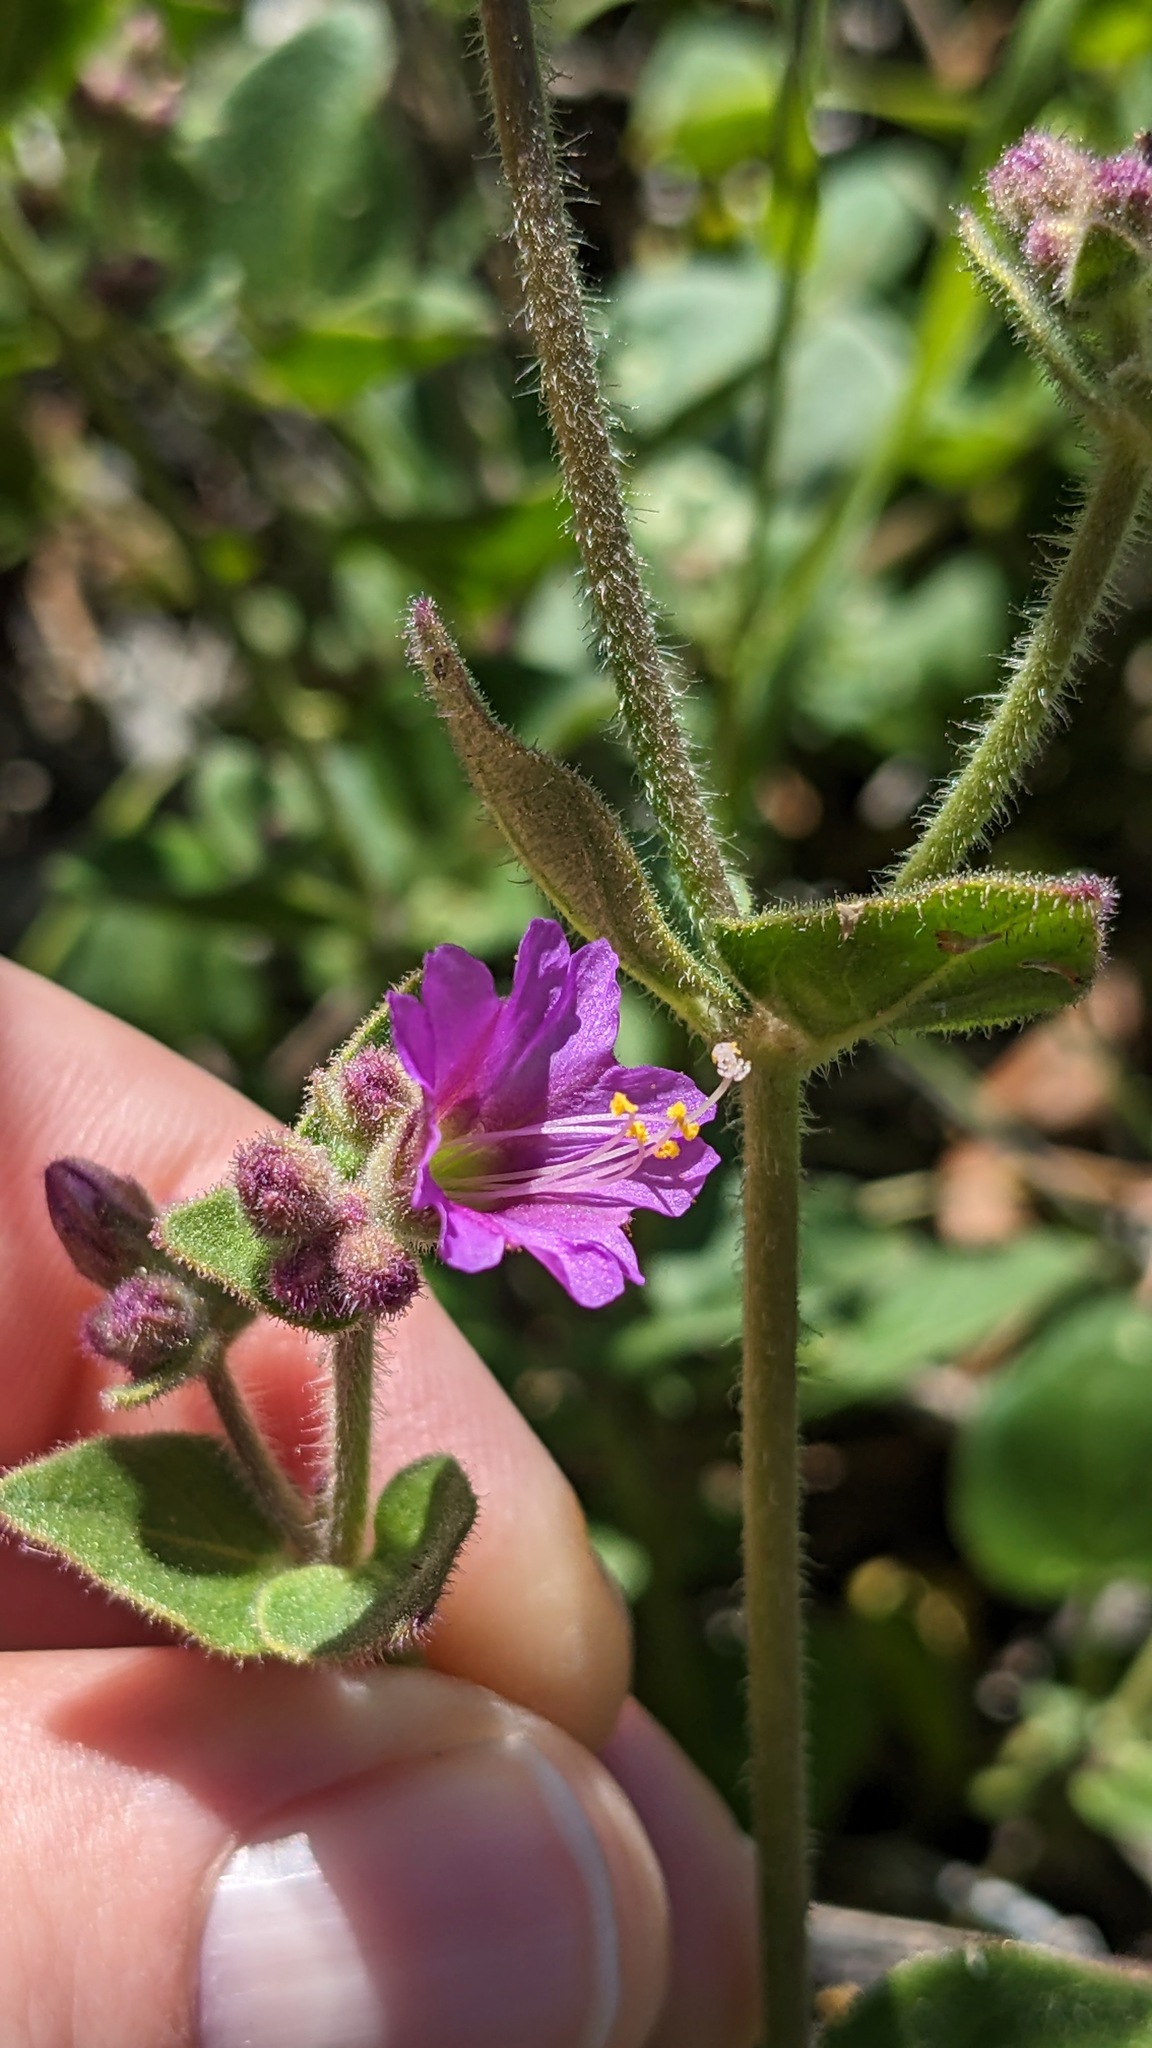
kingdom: Plantae
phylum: Tracheophyta
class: Magnoliopsida
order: Caryophyllales
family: Nyctaginaceae
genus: Mirabilis
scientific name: Mirabilis laevis
